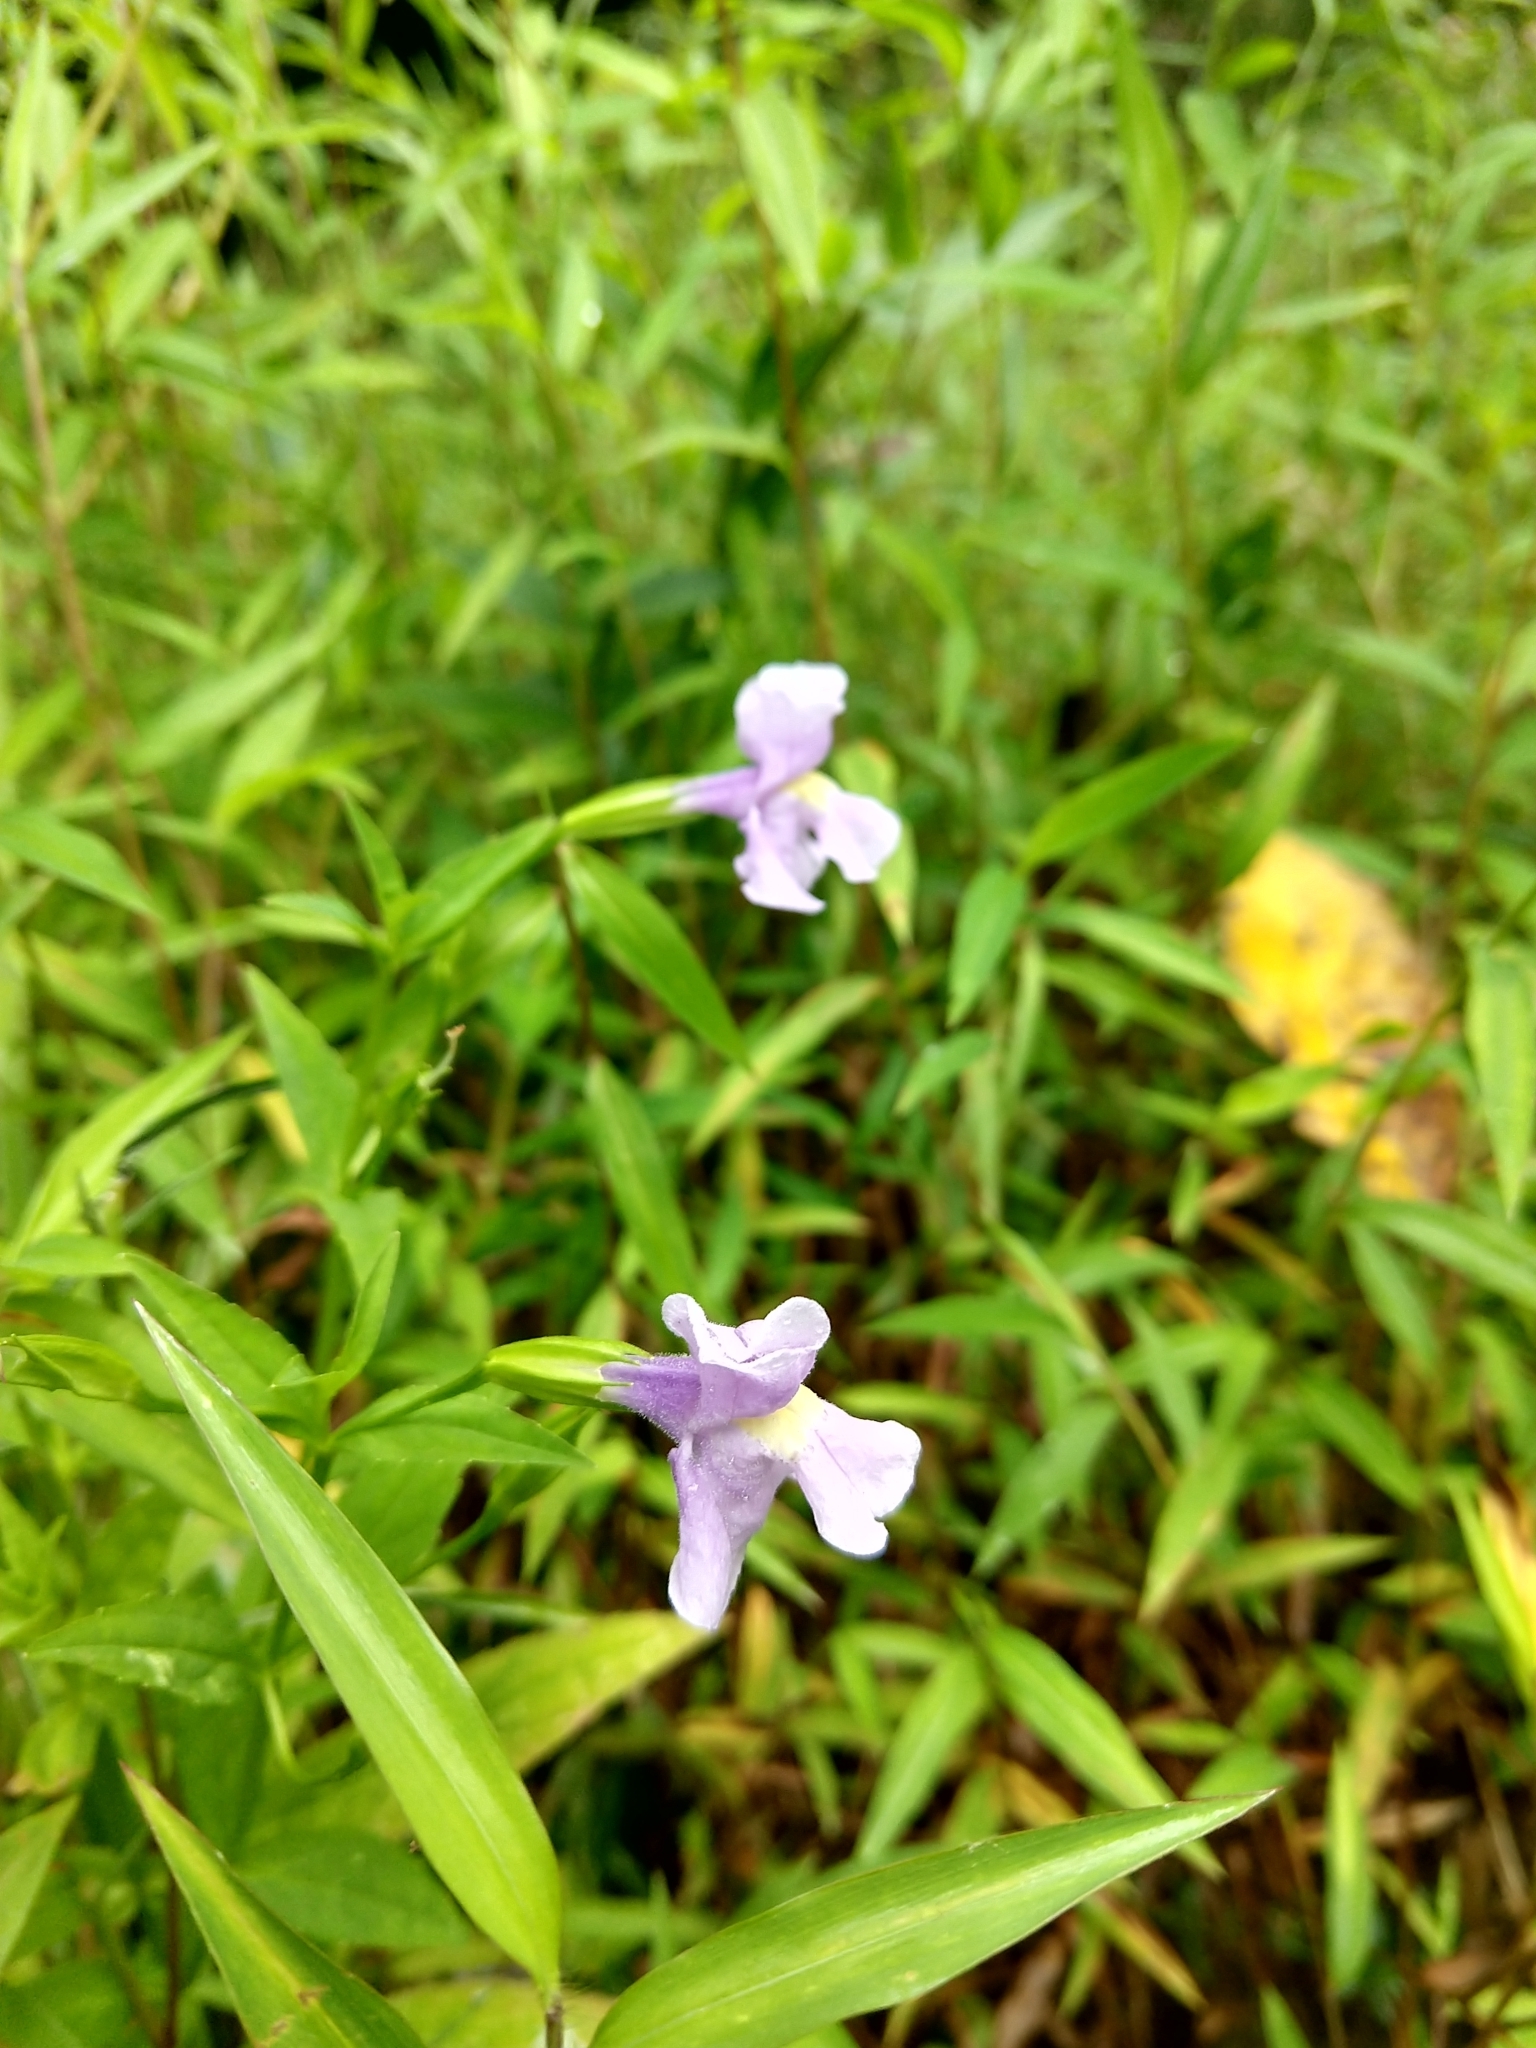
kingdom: Plantae
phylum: Tracheophyta
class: Magnoliopsida
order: Lamiales
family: Phrymaceae
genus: Mimulus
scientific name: Mimulus ringens
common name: Allegheny monkeyflower
